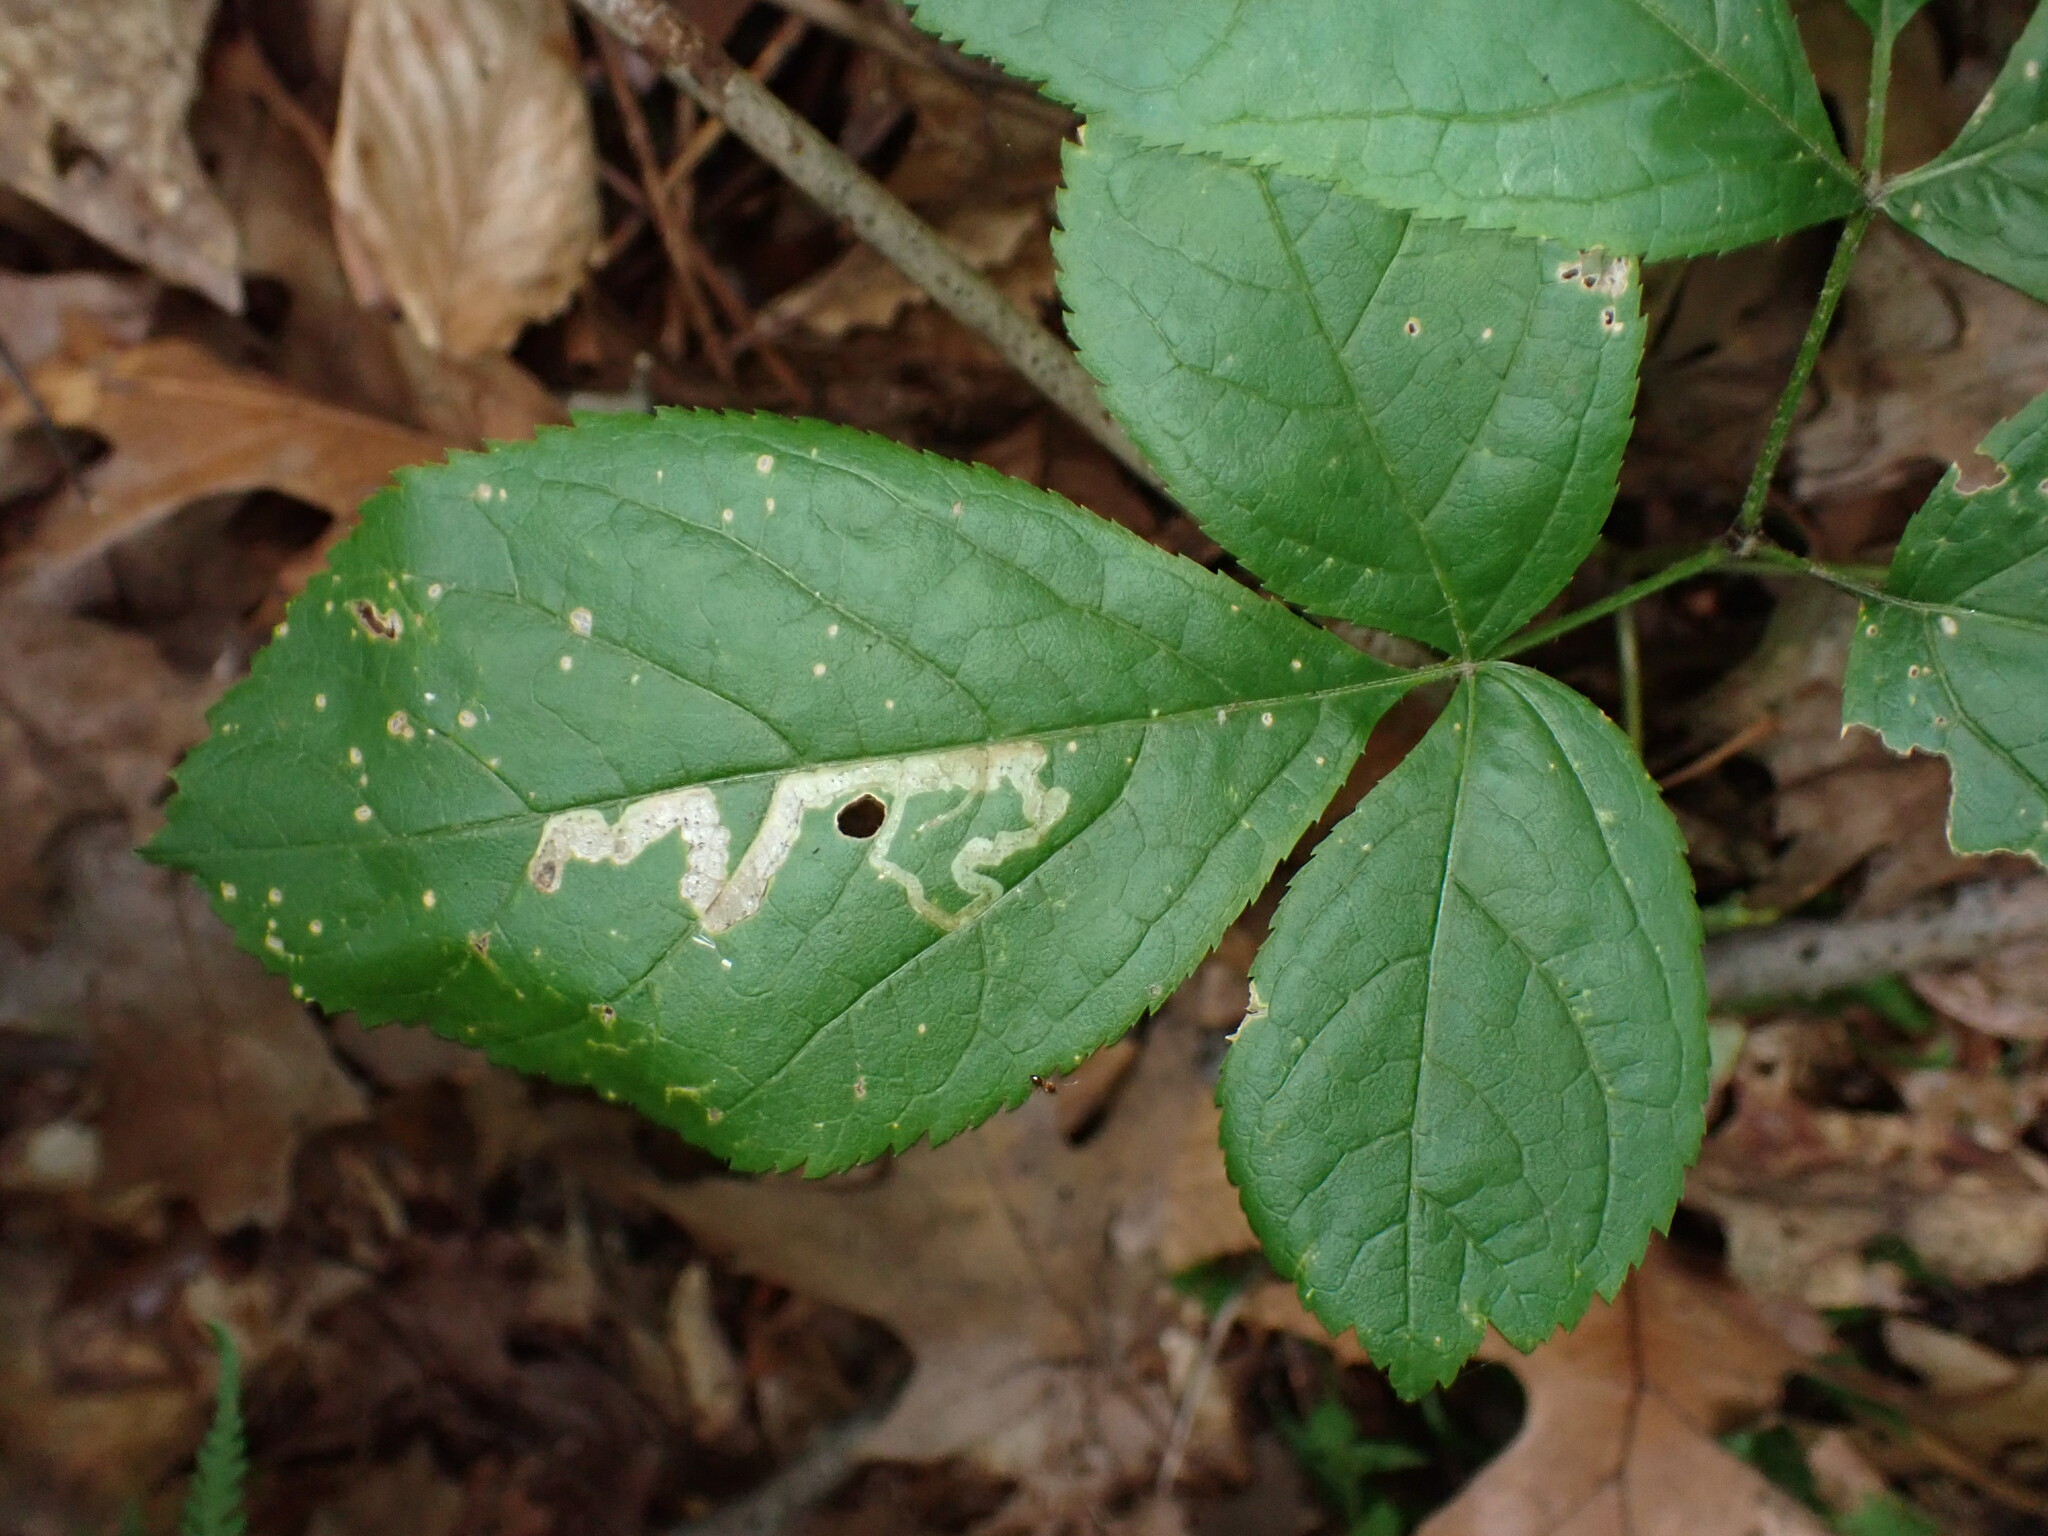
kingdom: Animalia
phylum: Arthropoda
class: Insecta
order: Diptera
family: Agromyzidae
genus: Phytomyza
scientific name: Phytomyza aralivora
